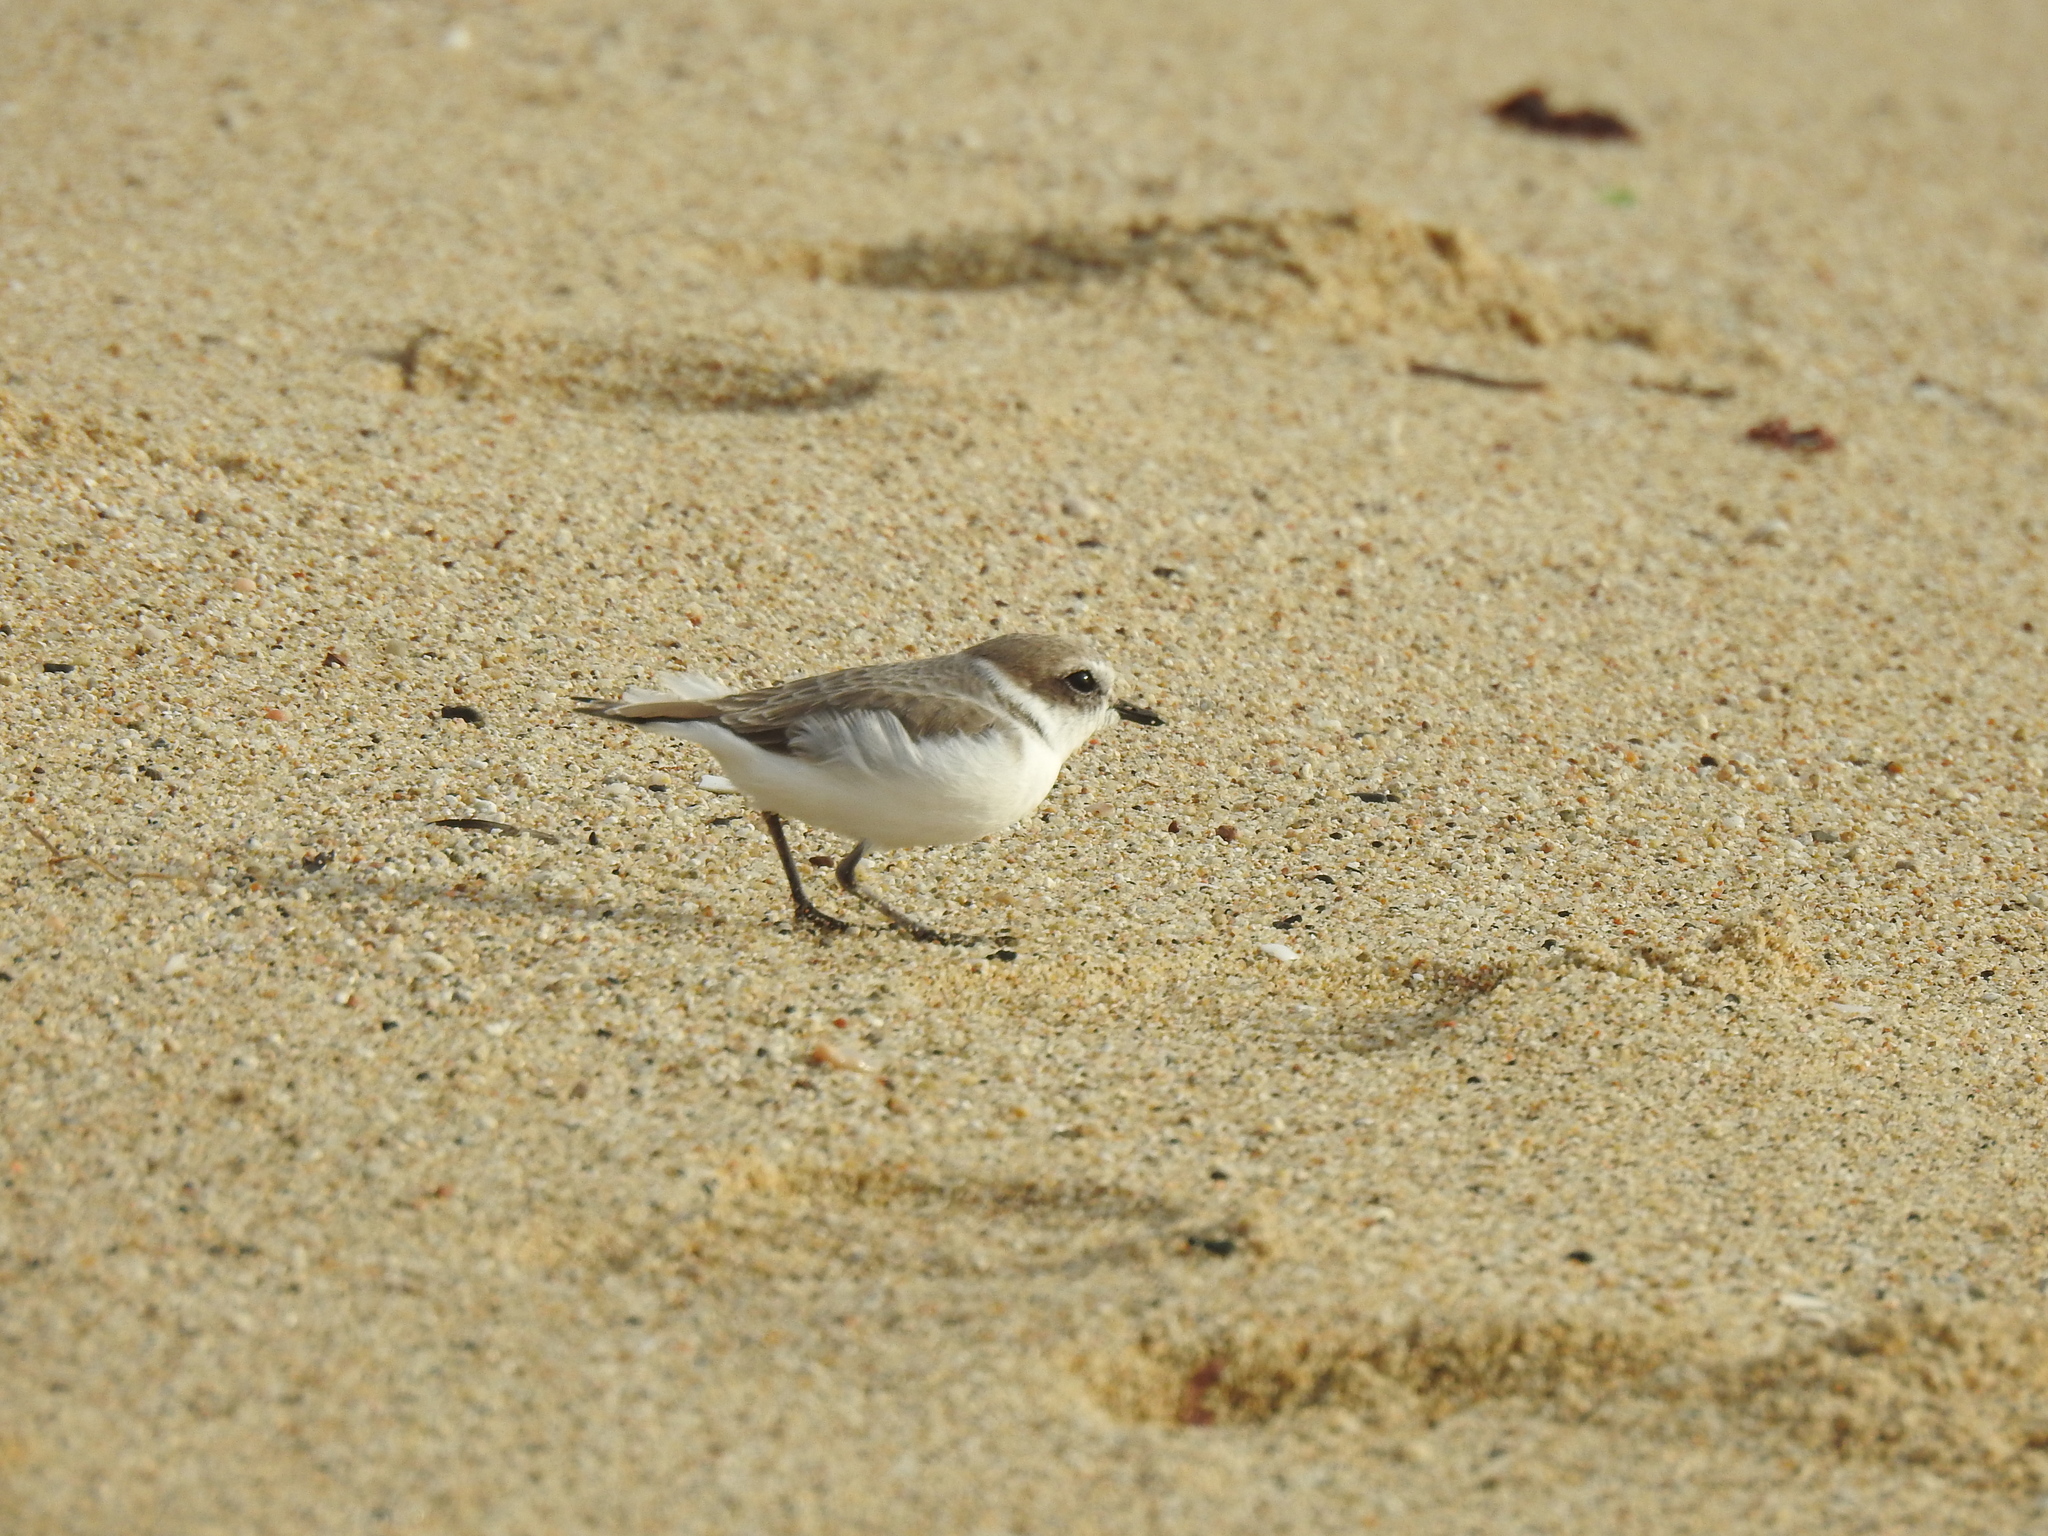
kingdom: Animalia
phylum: Chordata
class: Aves
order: Charadriiformes
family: Charadriidae
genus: Anarhynchus
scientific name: Anarhynchus
